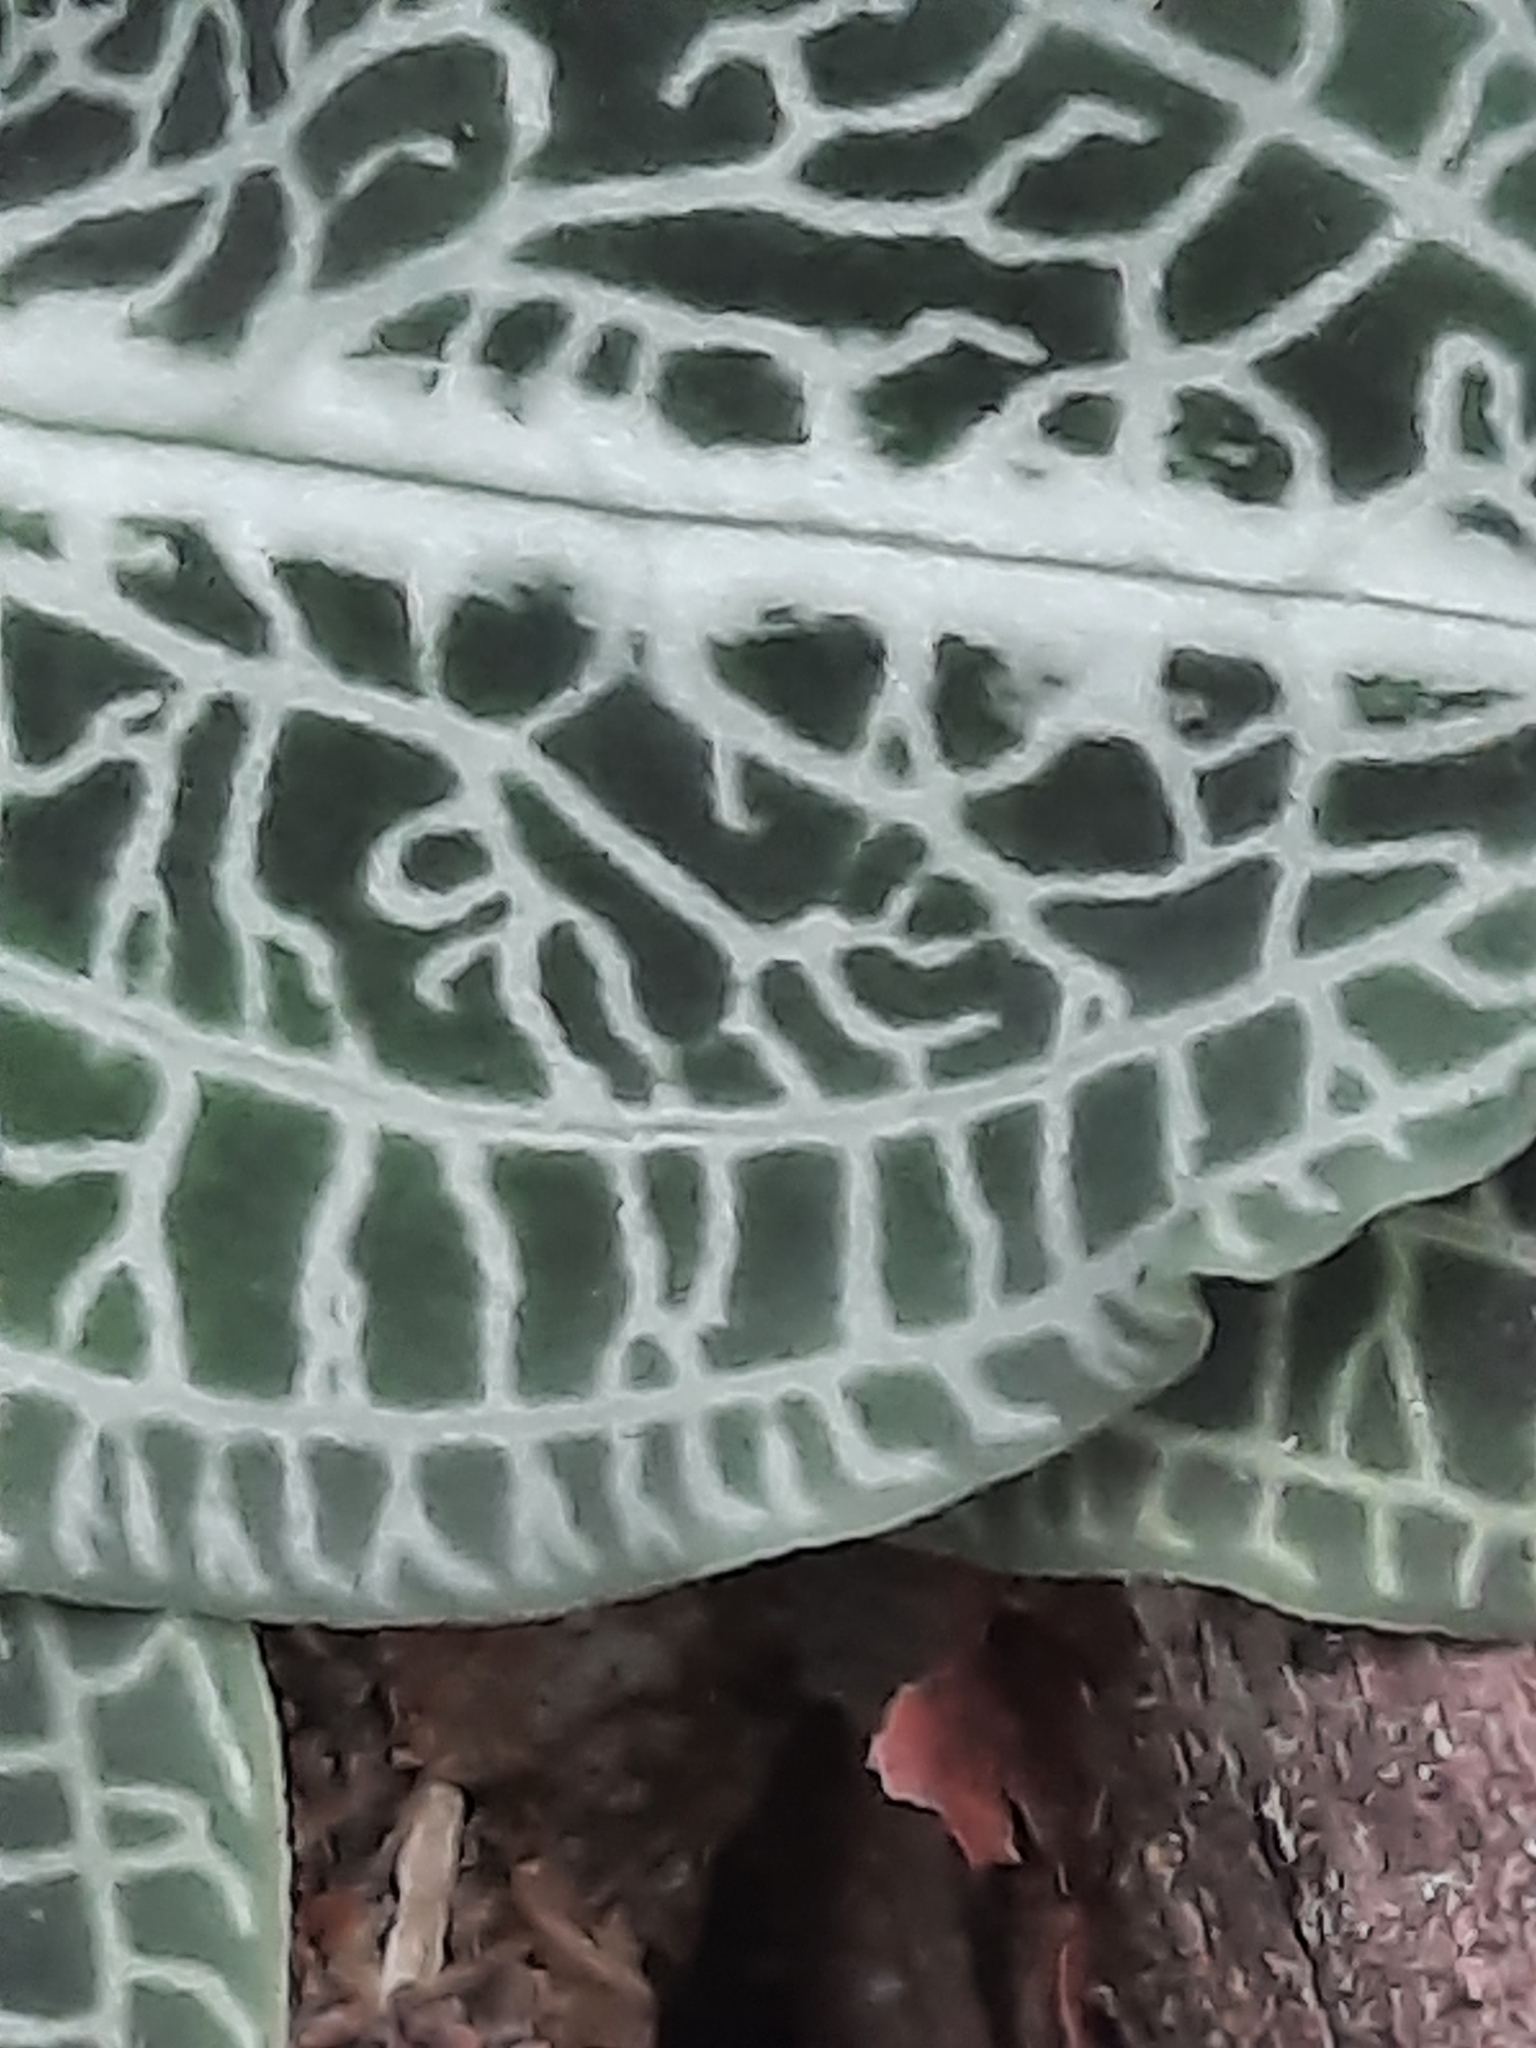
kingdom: Plantae
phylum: Tracheophyta
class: Liliopsida
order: Asparagales
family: Orchidaceae
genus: Goodyera
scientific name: Goodyera pubescens
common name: Downy rattlesnake-plantain
